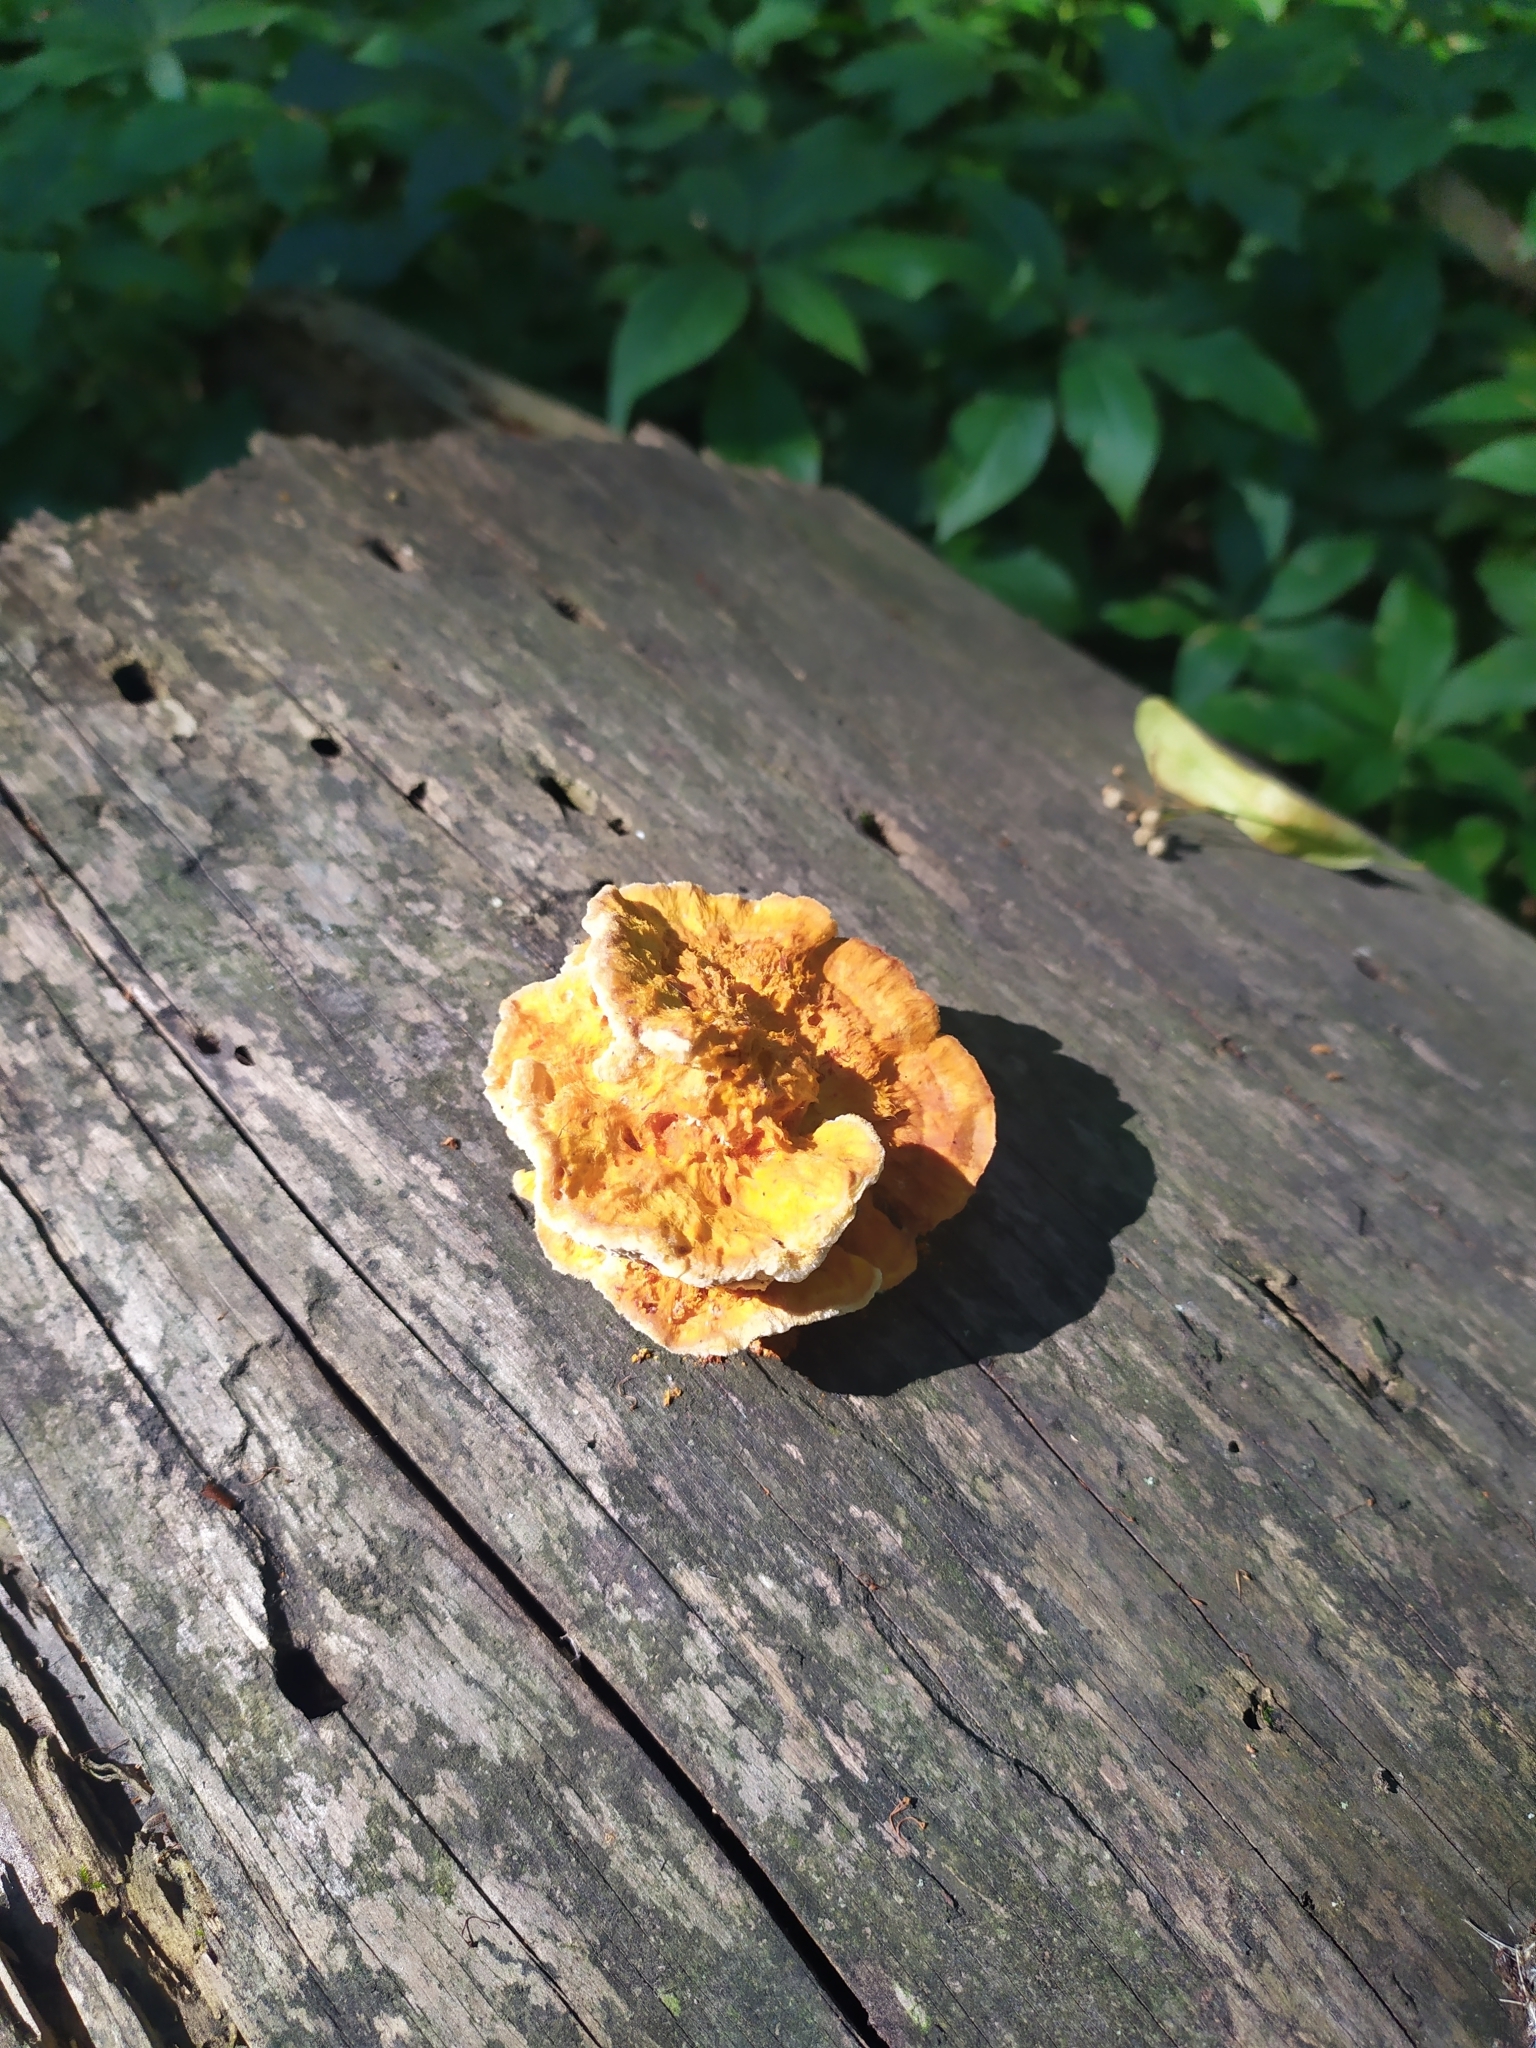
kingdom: Fungi
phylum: Basidiomycota
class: Agaricomycetes
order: Polyporales
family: Pycnoporellaceae
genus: Pycnoporellus
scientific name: Pycnoporellus fulgens
